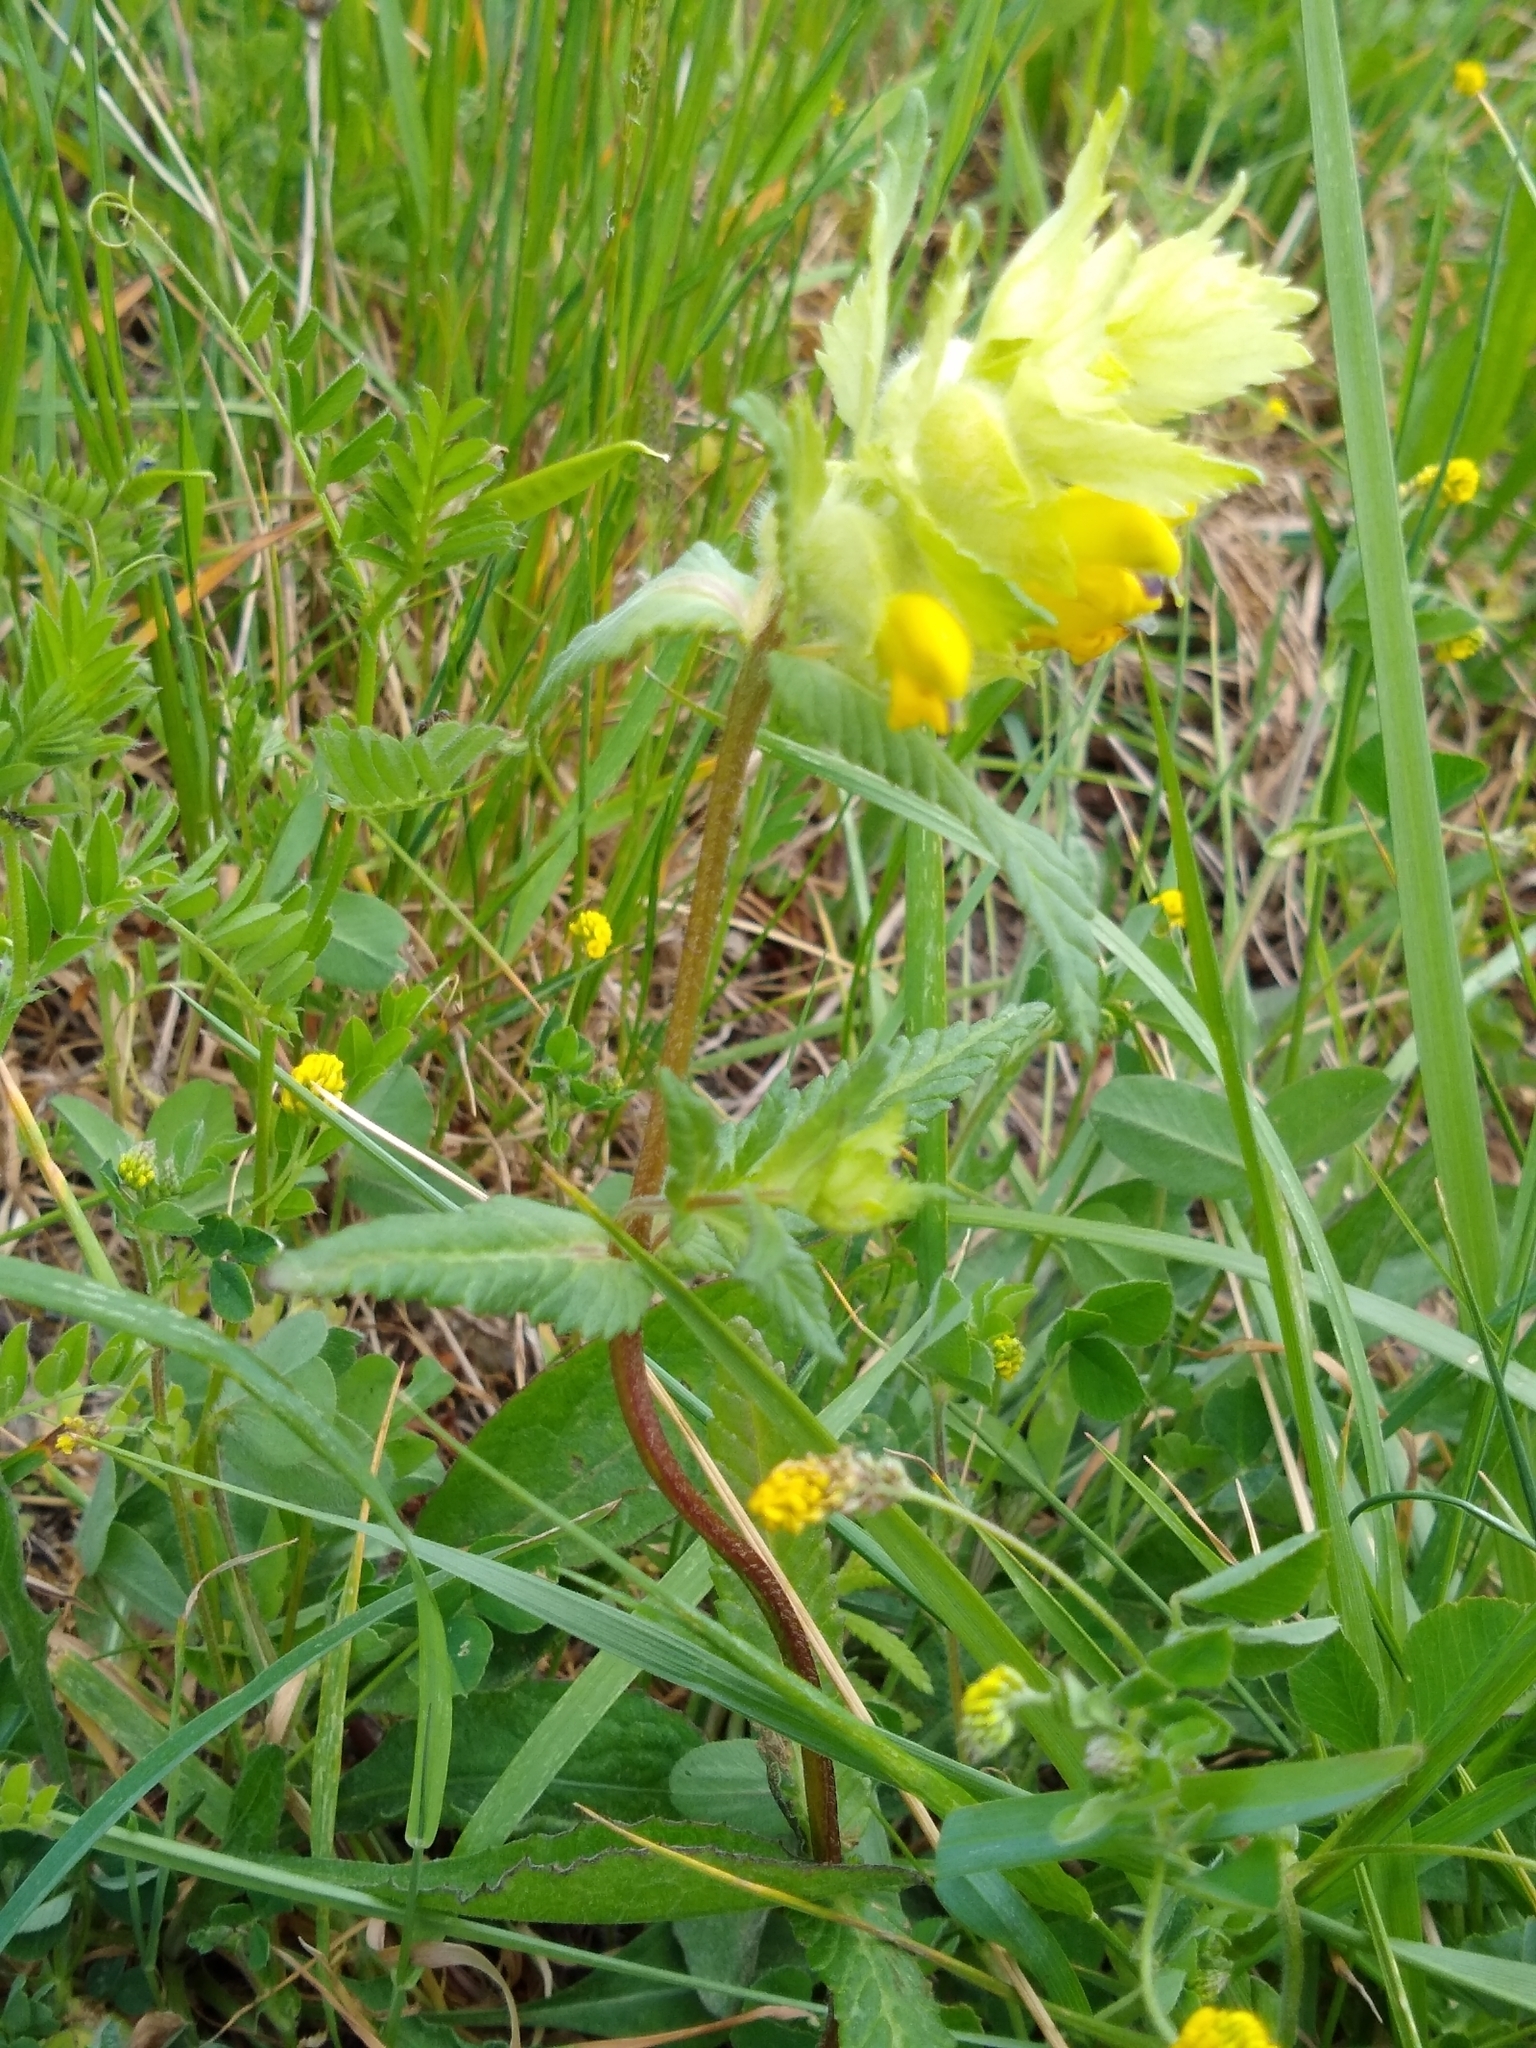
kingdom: Plantae
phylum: Tracheophyta
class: Magnoliopsida
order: Lamiales
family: Orobanchaceae
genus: Rhinanthus
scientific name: Rhinanthus alectorolophus
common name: Greater yellow-rattle
